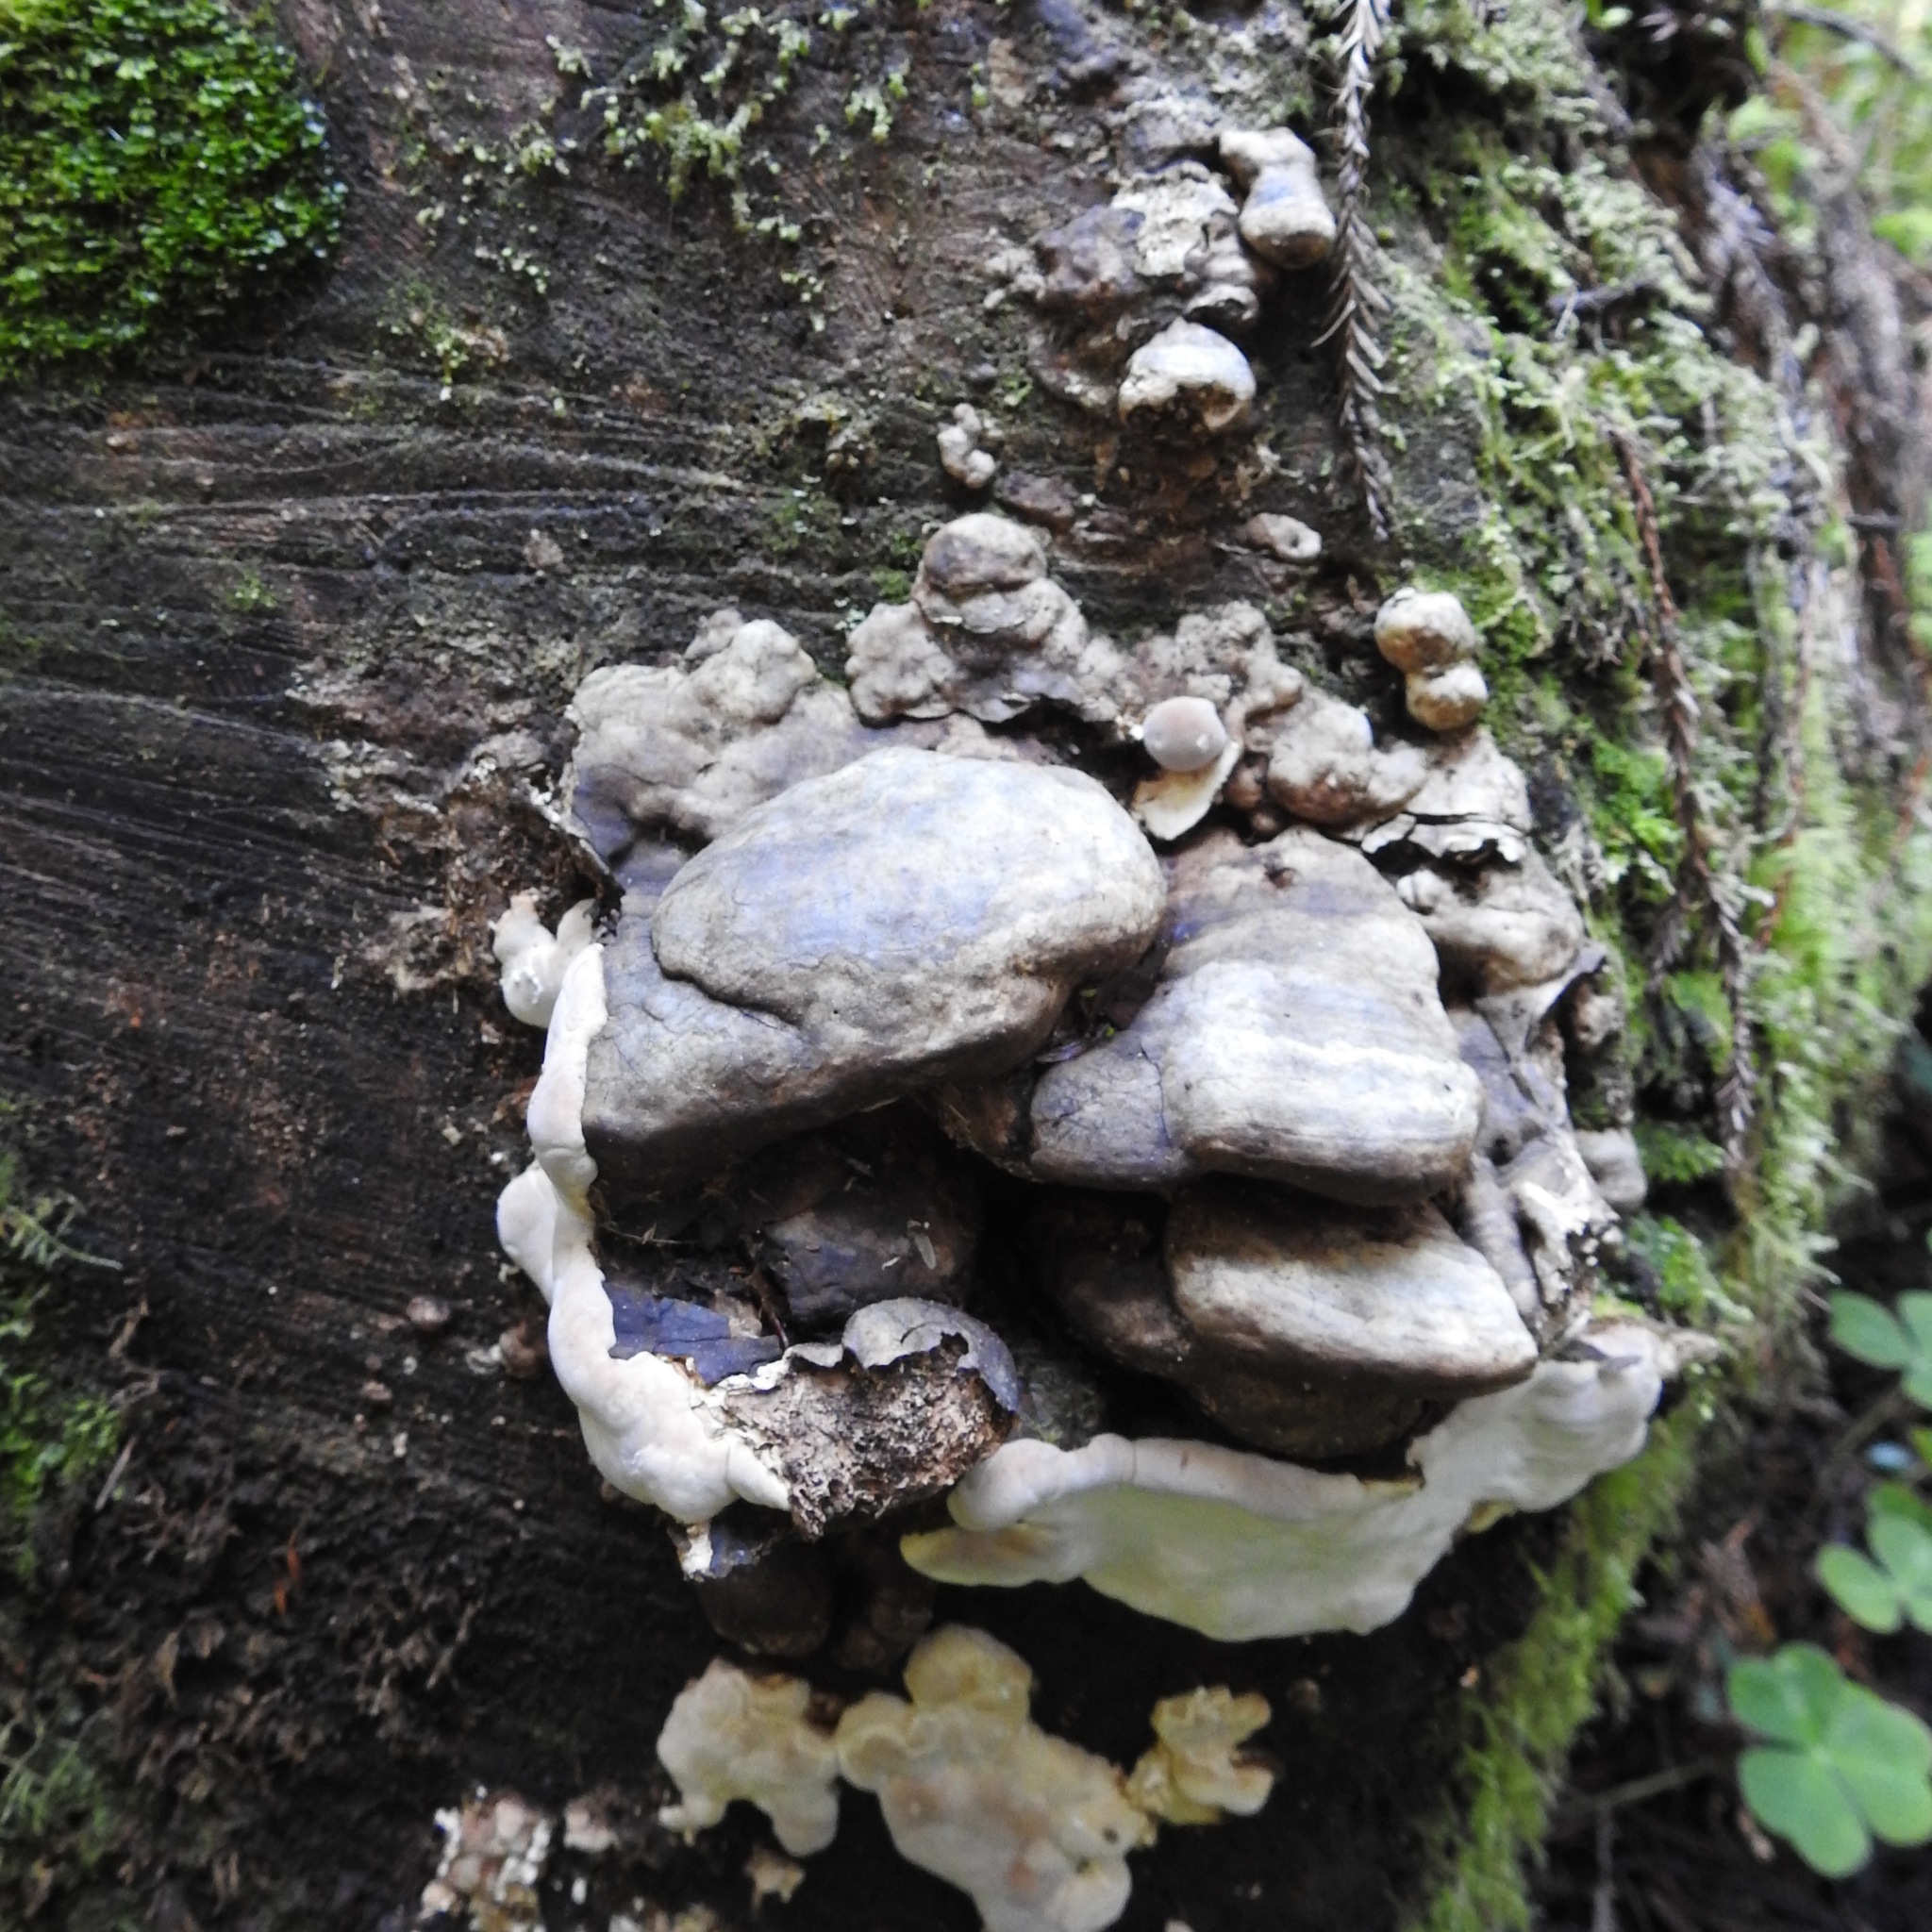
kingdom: Fungi
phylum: Basidiomycota
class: Agaricomycetes
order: Polyporales
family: Fomitopsidaceae
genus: Fomitopsis
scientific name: Fomitopsis ochracea
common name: American brown fomitopsis
